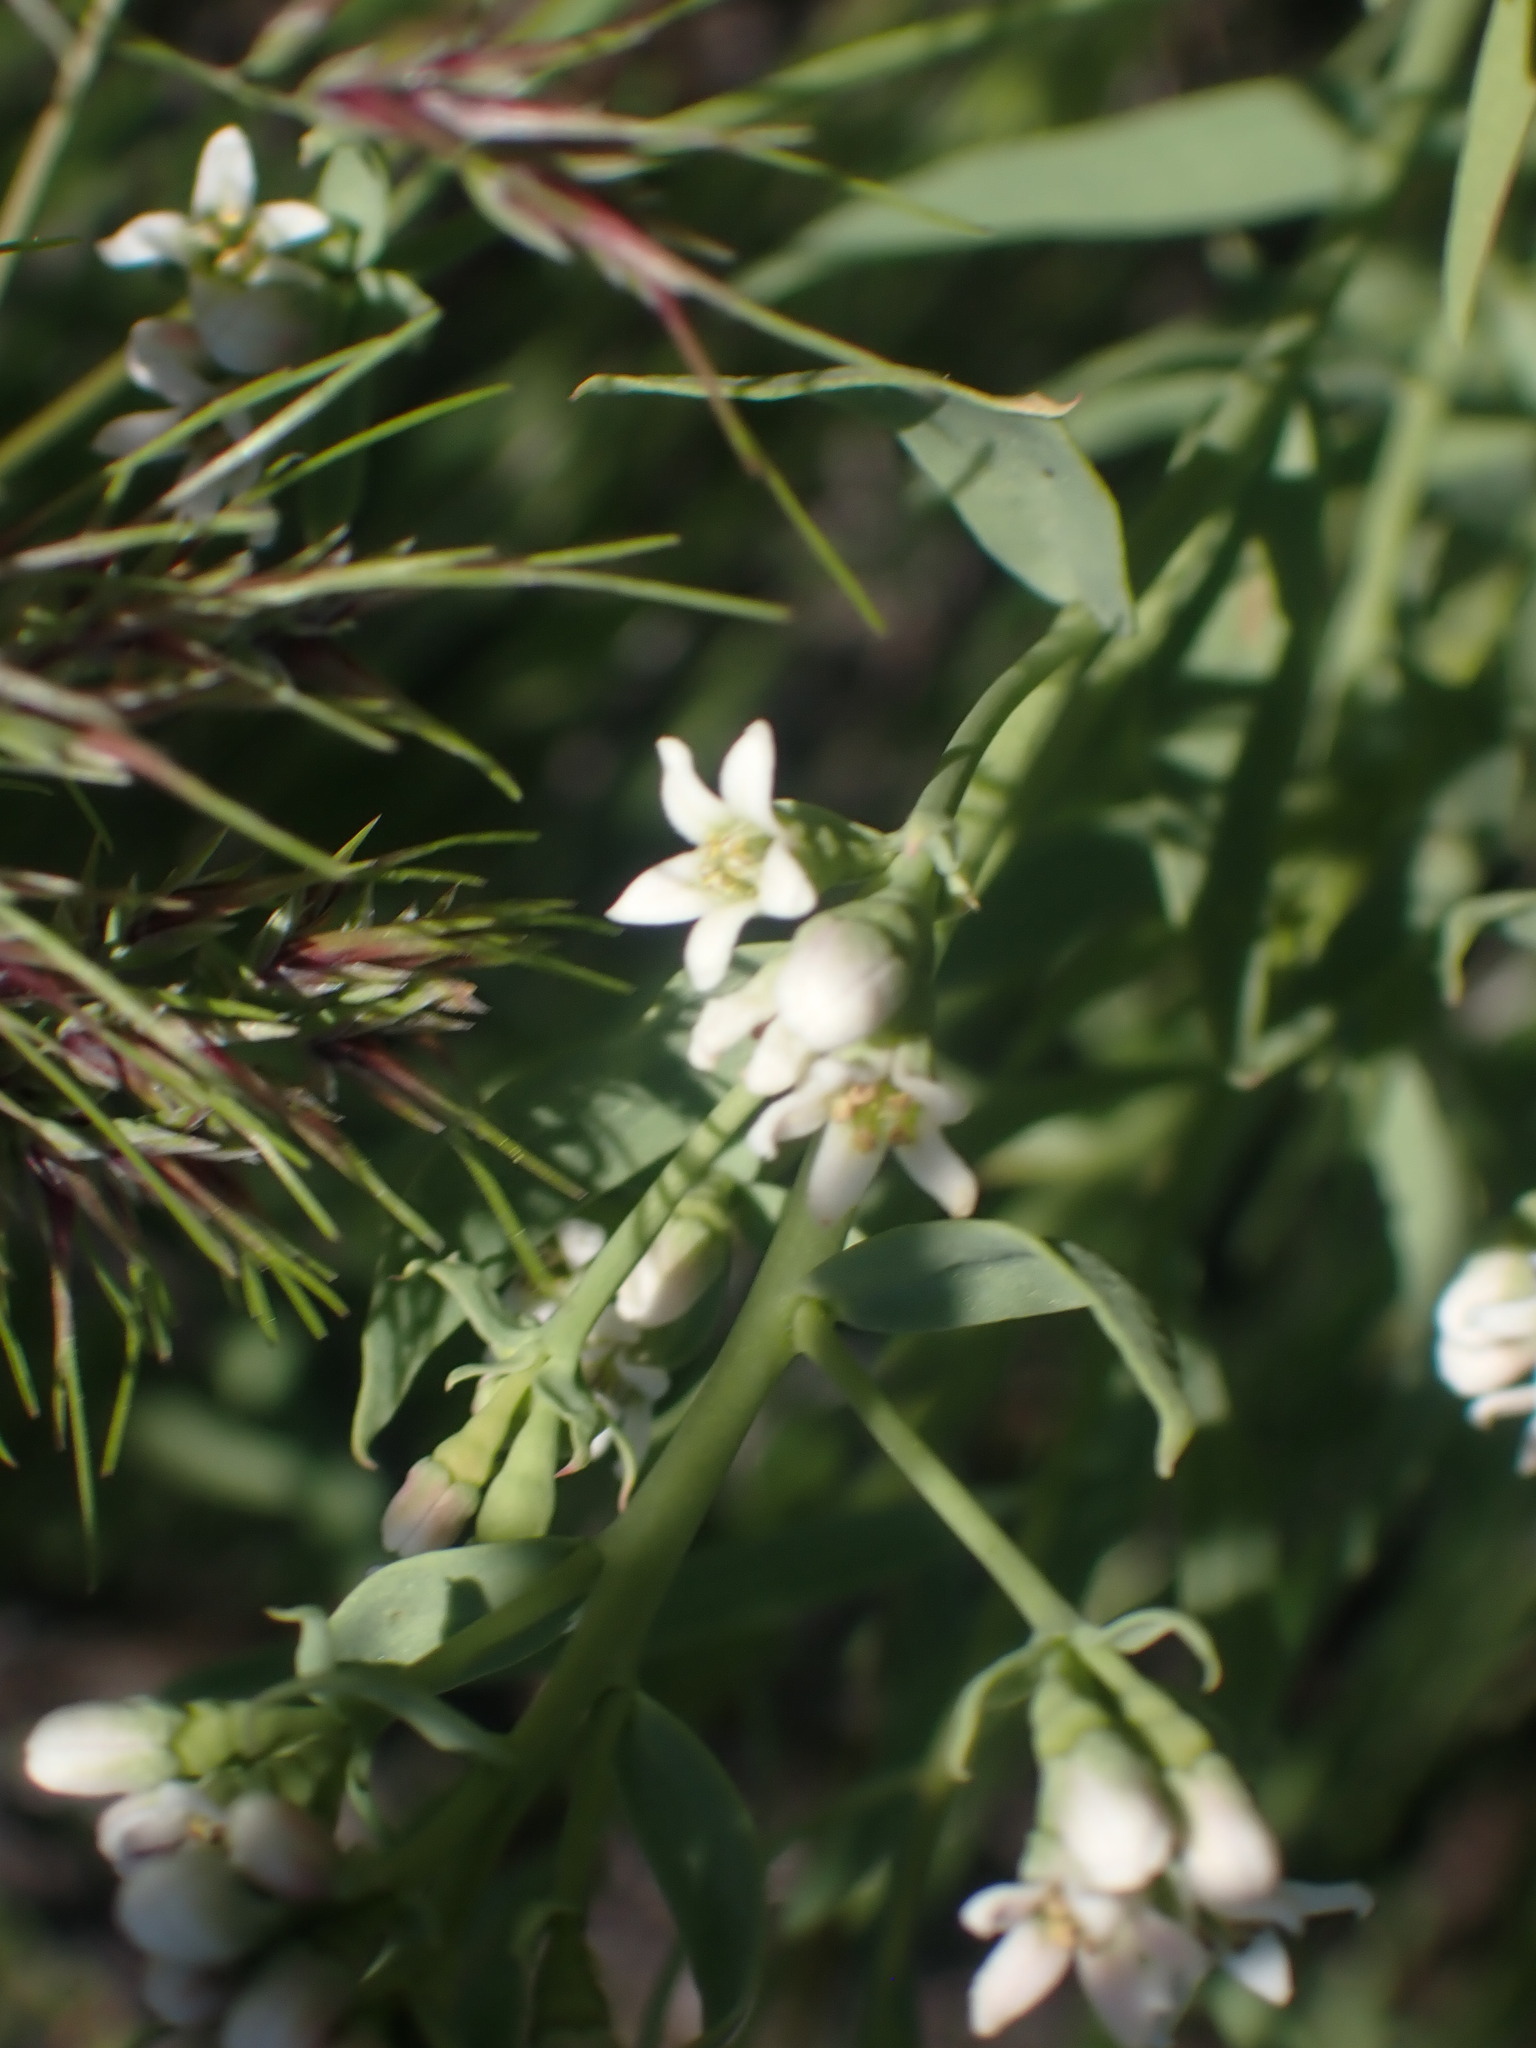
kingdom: Plantae
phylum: Tracheophyta
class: Magnoliopsida
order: Santalales
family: Comandraceae
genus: Comandra
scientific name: Comandra umbellata
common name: Bastard toadflax
